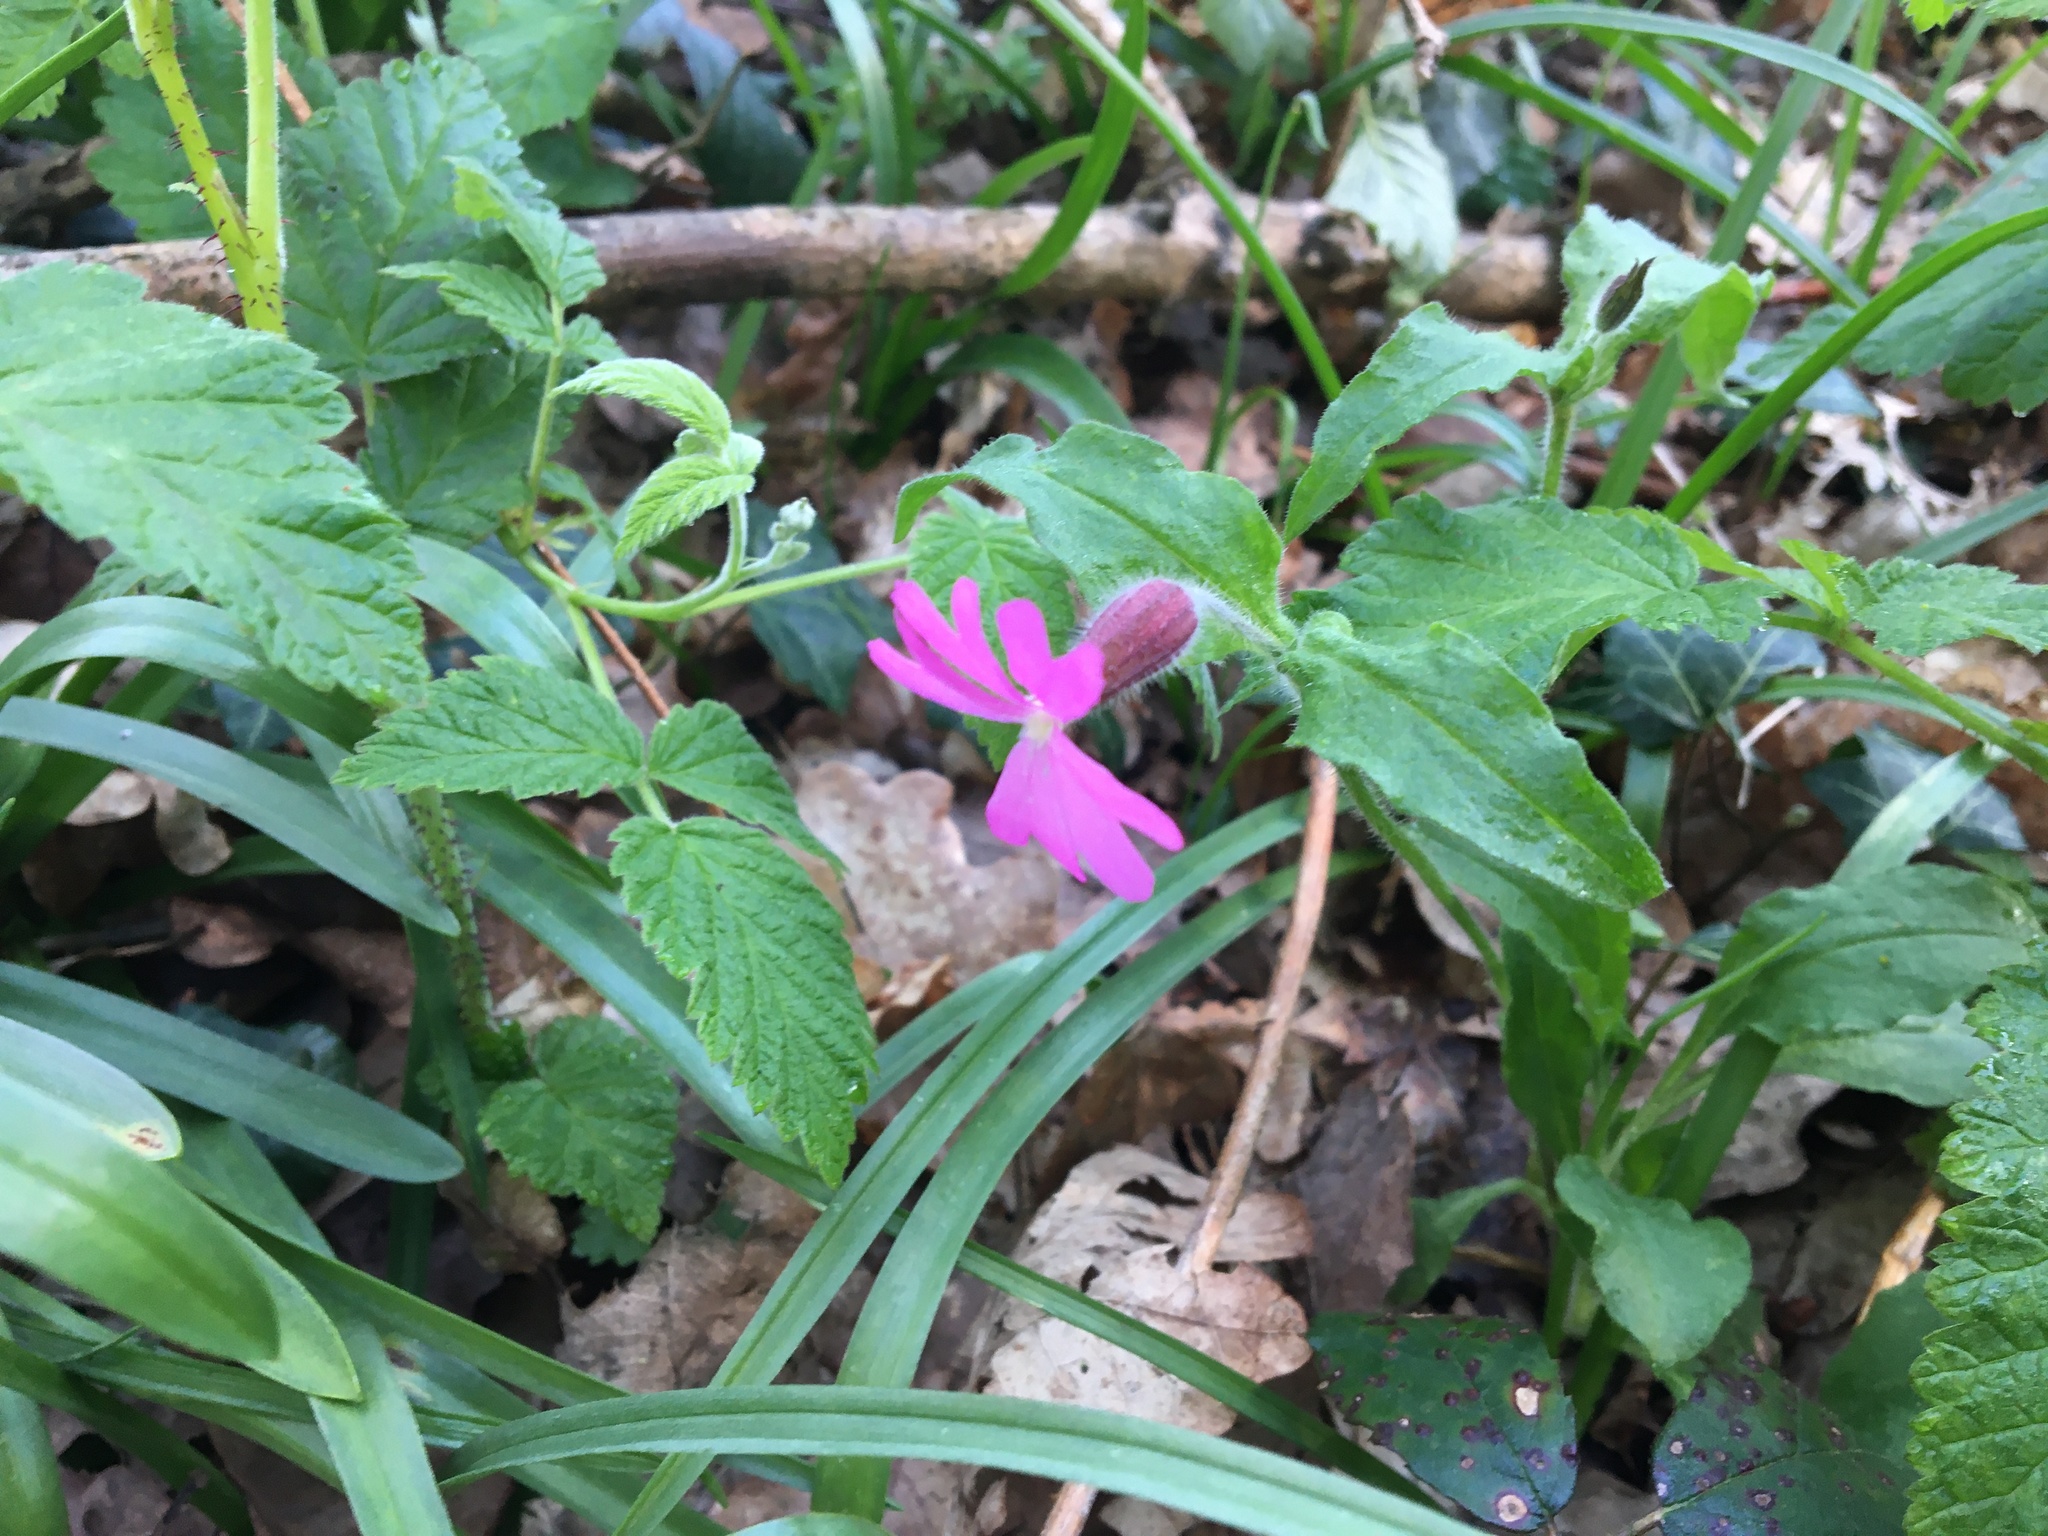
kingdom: Plantae
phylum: Tracheophyta
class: Magnoliopsida
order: Caryophyllales
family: Caryophyllaceae
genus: Silene
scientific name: Silene dioica
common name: Red campion
